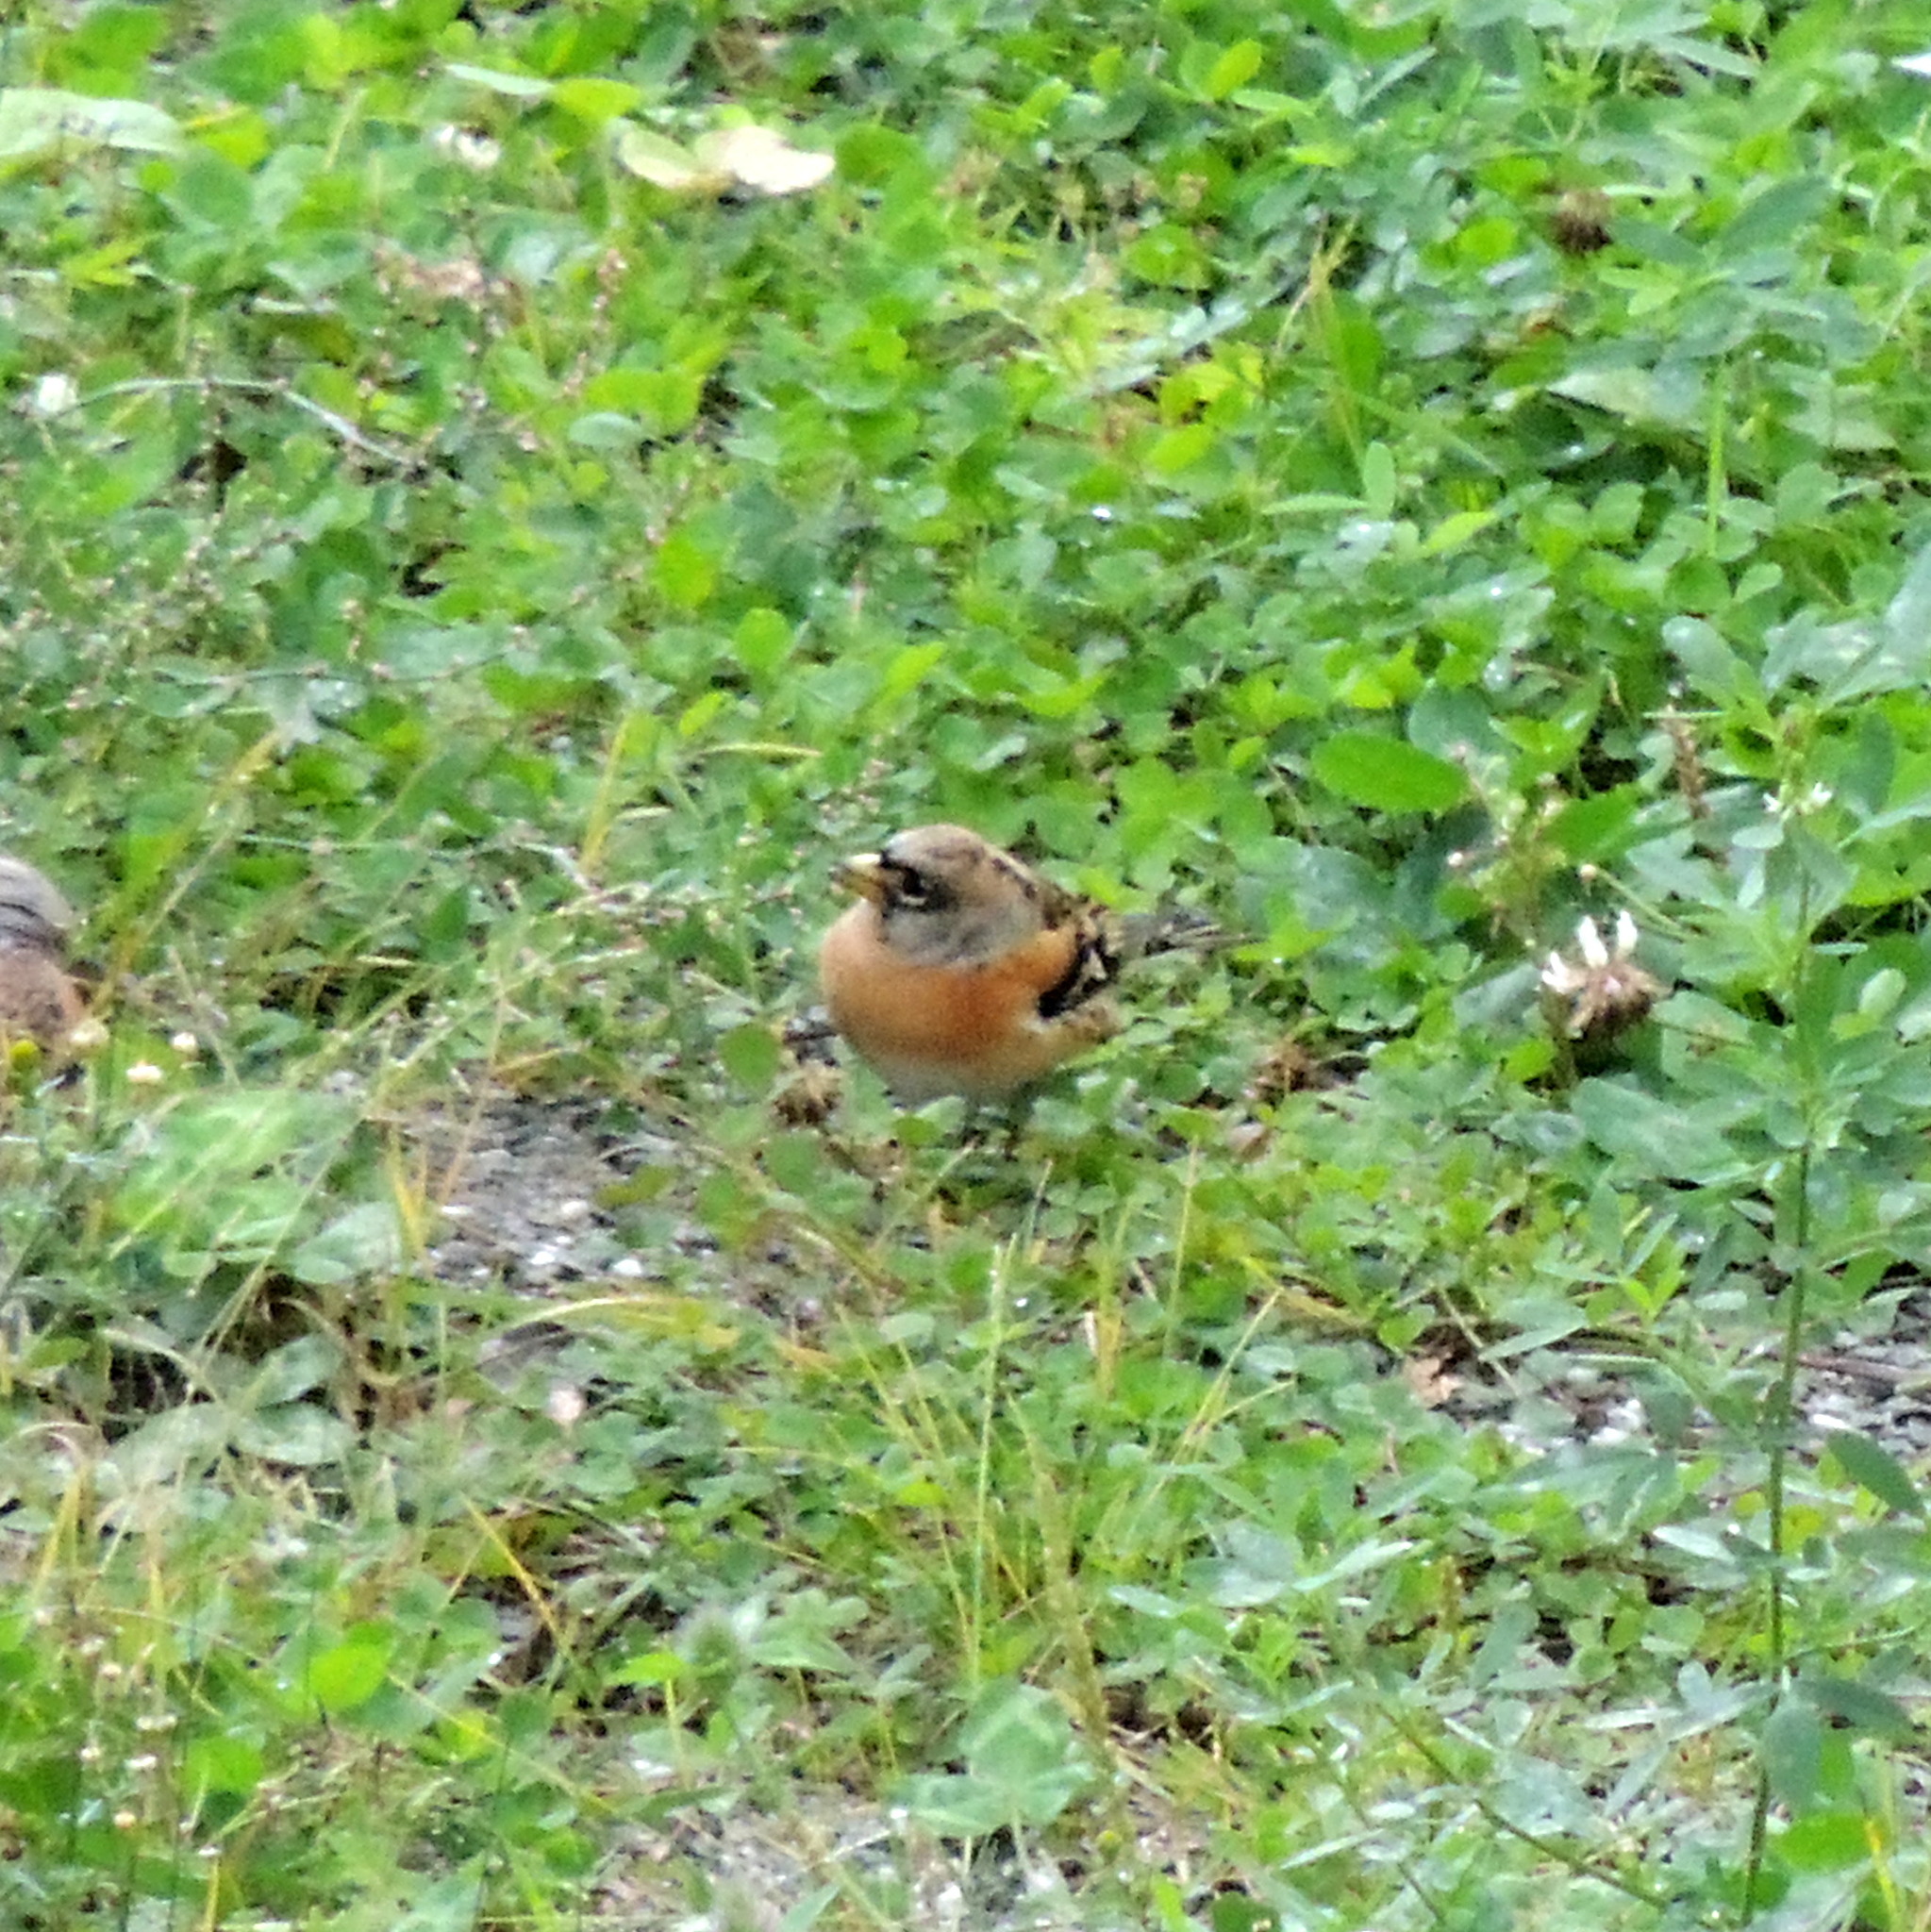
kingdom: Animalia
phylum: Chordata
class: Aves
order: Passeriformes
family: Fringillidae
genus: Fringilla
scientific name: Fringilla montifringilla
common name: Brambling
